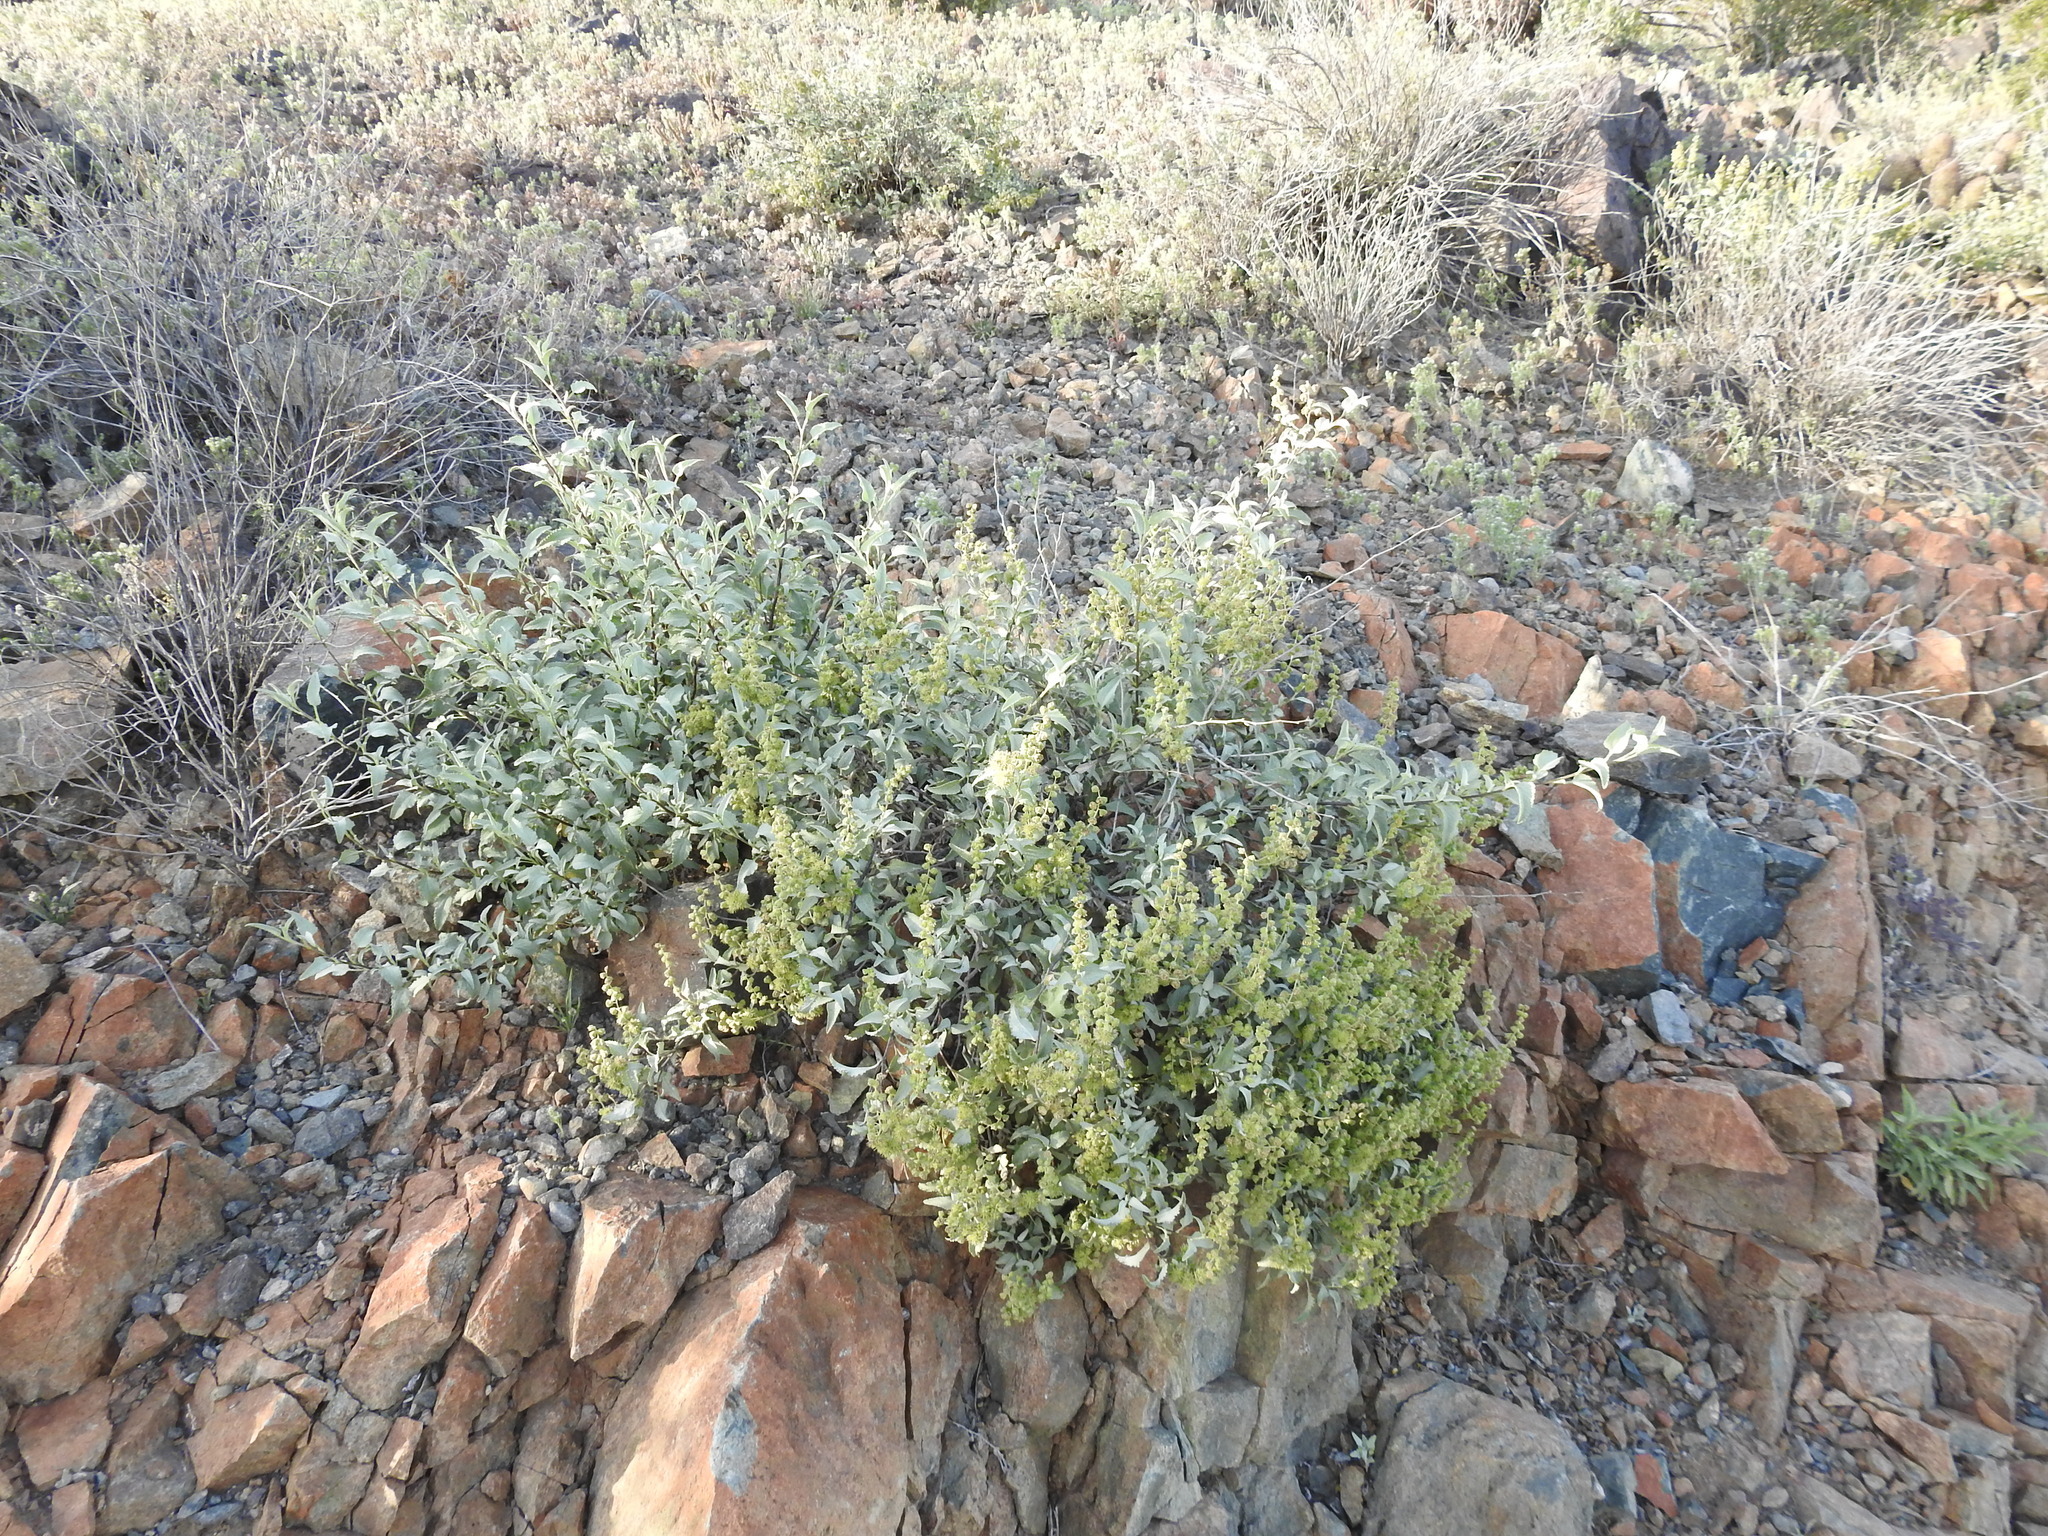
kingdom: Plantae
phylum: Tracheophyta
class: Magnoliopsida
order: Asterales
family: Asteraceae
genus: Ambrosia
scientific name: Ambrosia deltoidea
